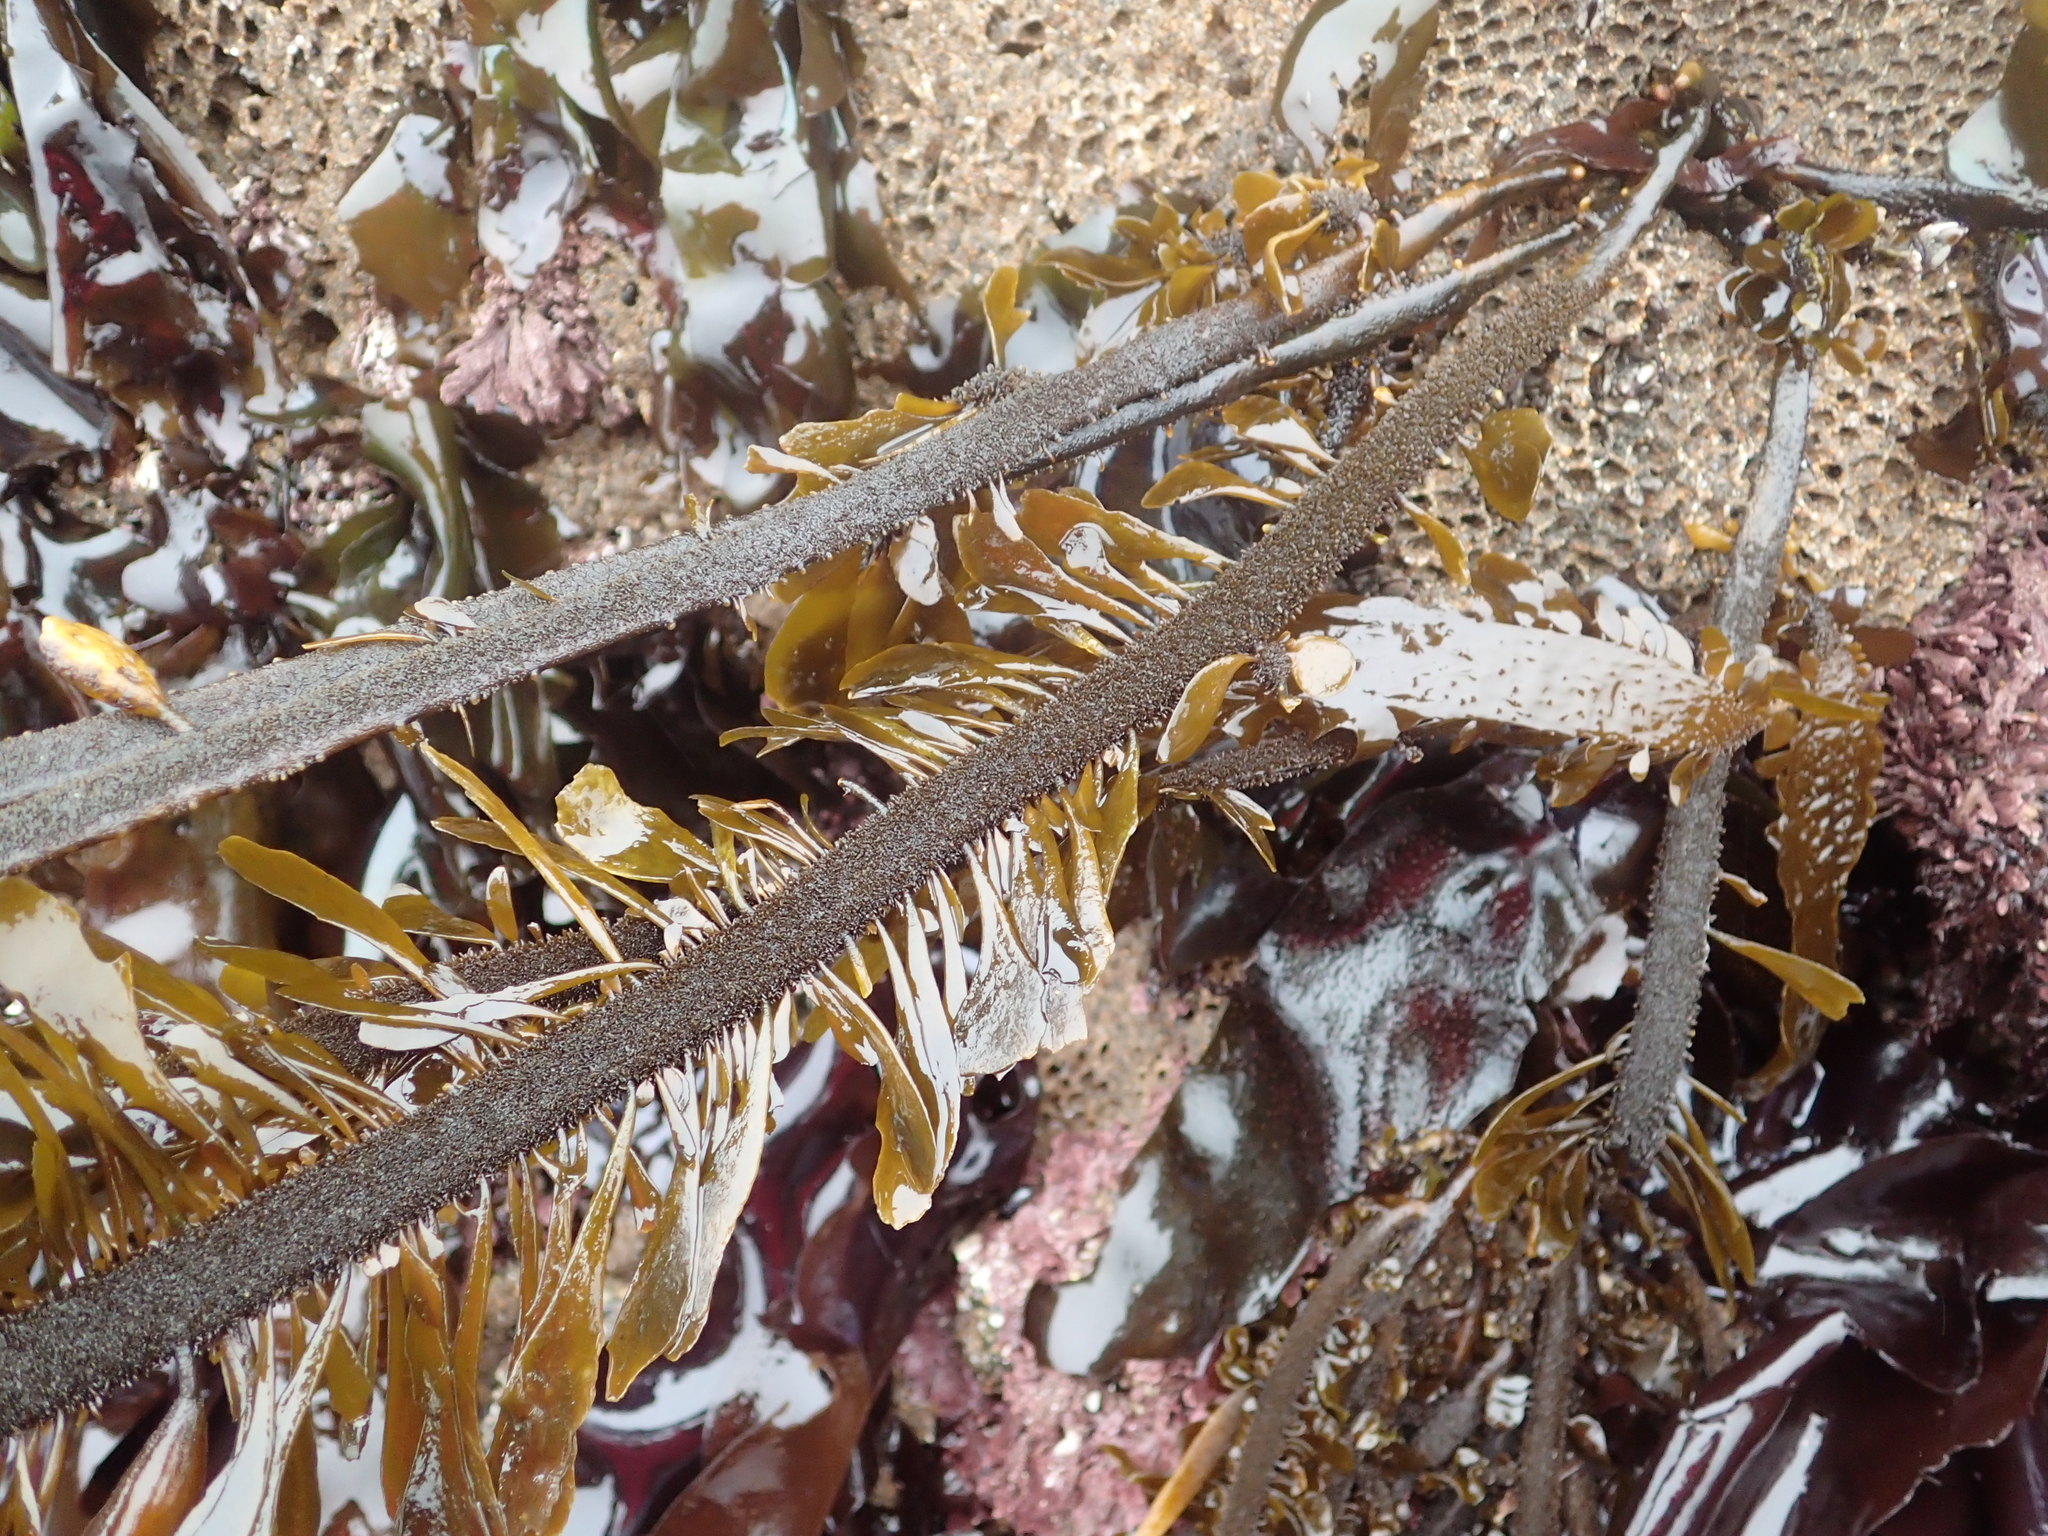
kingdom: Chromista
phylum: Ochrophyta
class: Phaeophyceae
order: Laminariales
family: Lessoniaceae
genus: Egregia
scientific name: Egregia menziesii
